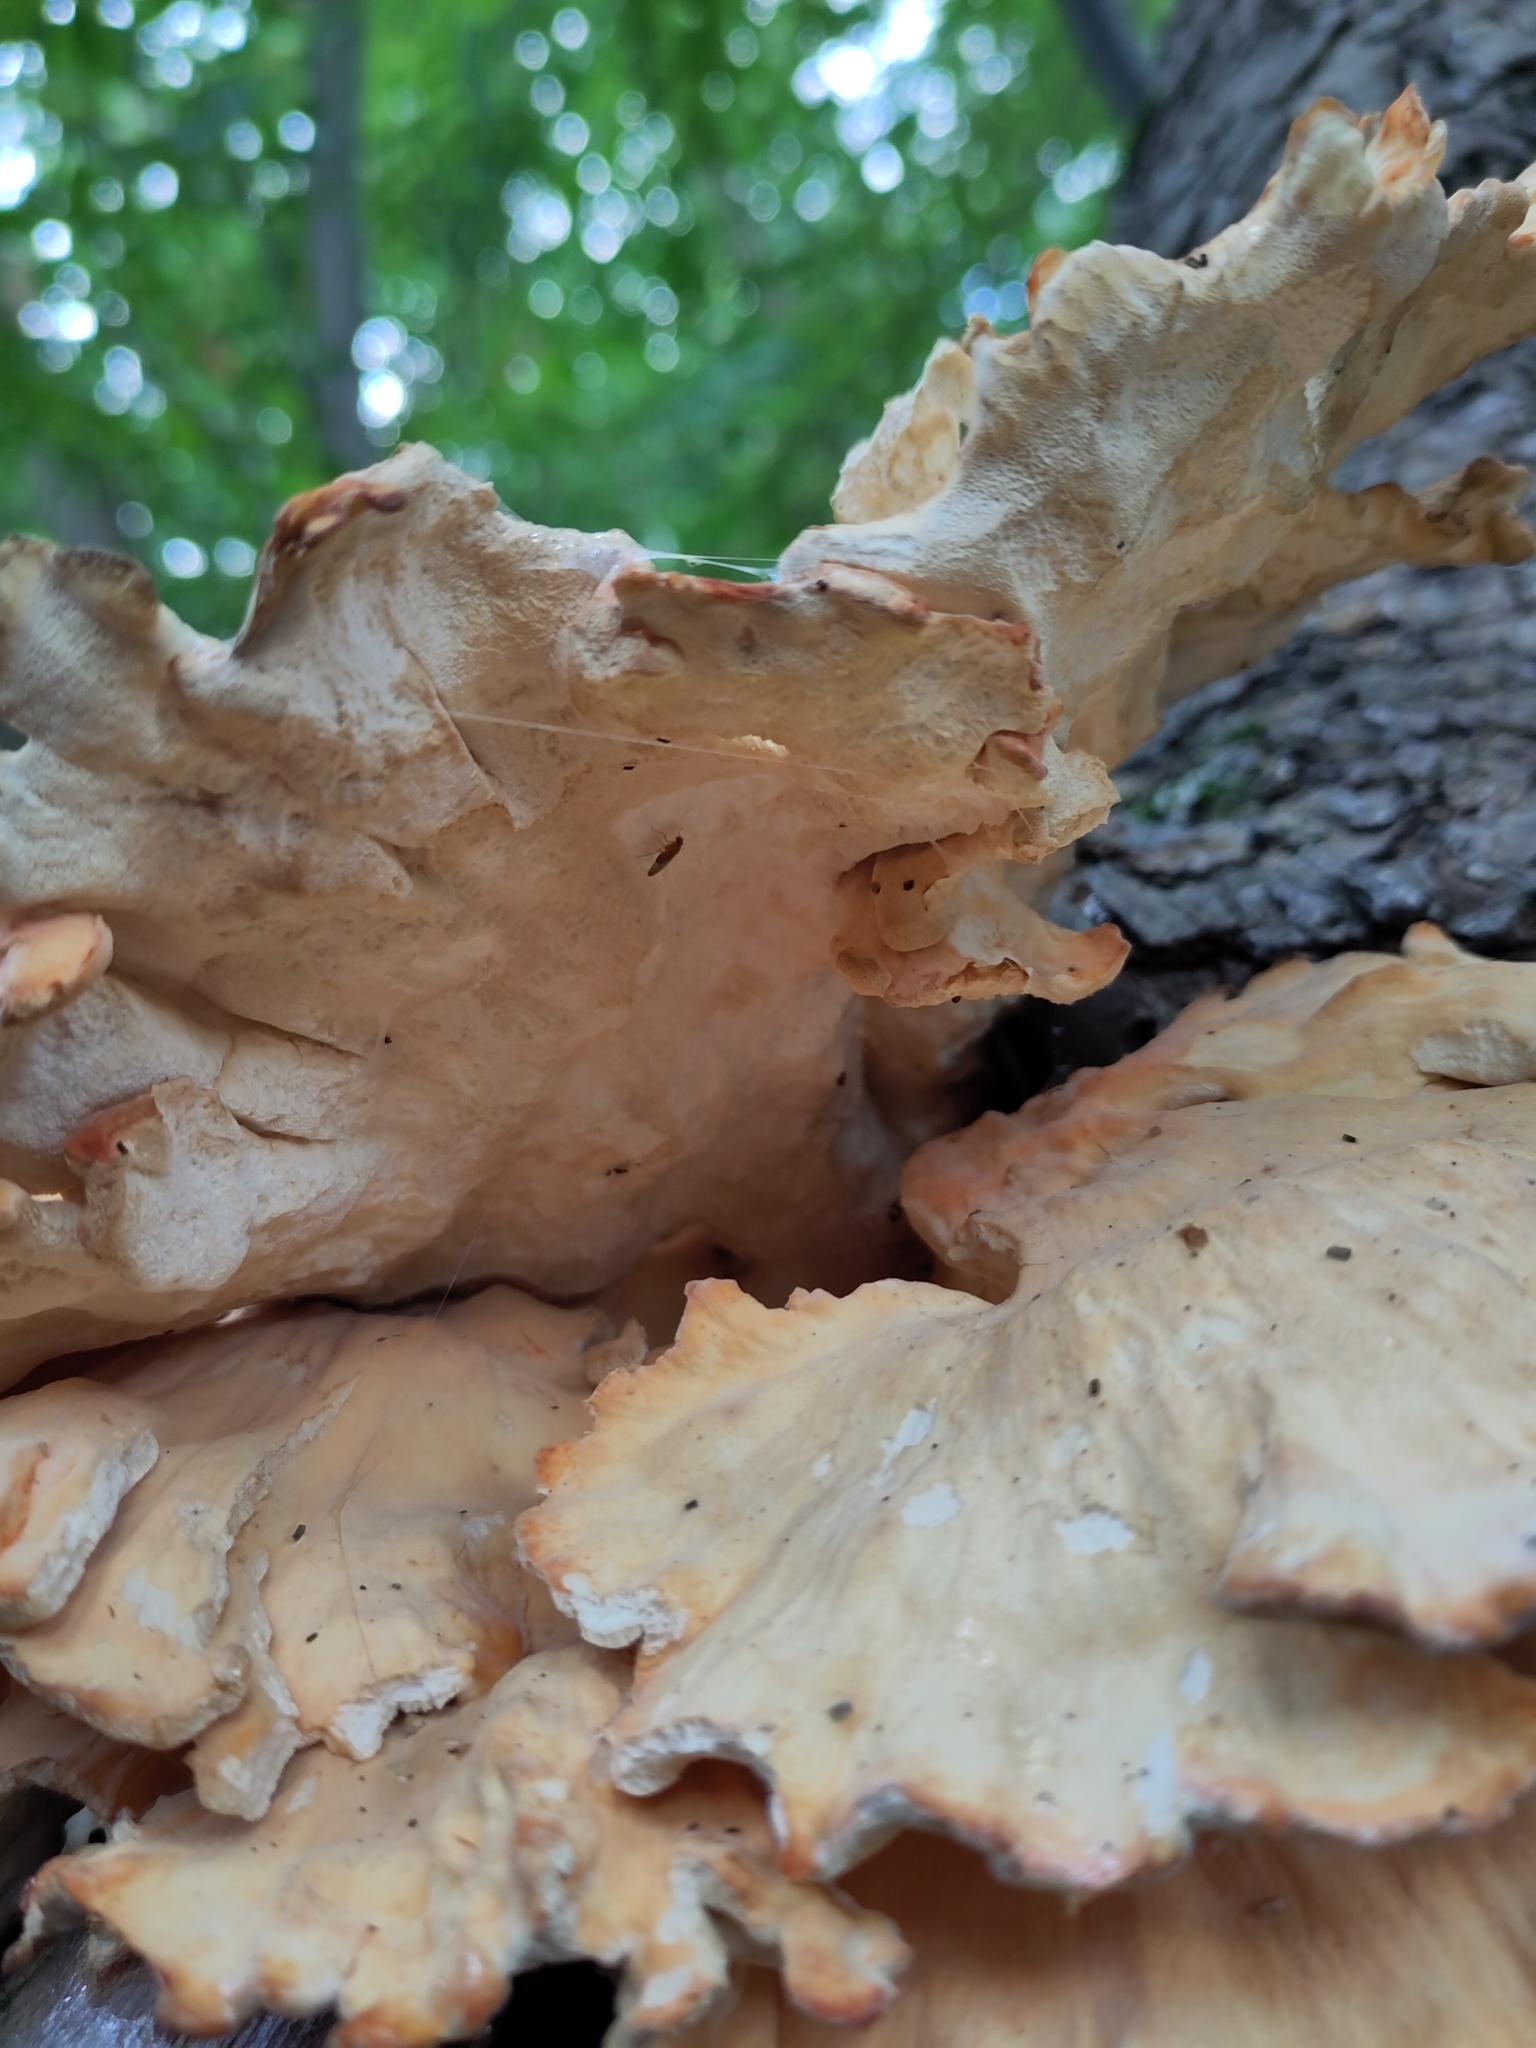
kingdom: Fungi
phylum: Basidiomycota
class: Agaricomycetes
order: Polyporales
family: Laetiporaceae
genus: Laetiporus
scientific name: Laetiporus sulphureus
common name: Chicken of the woods
